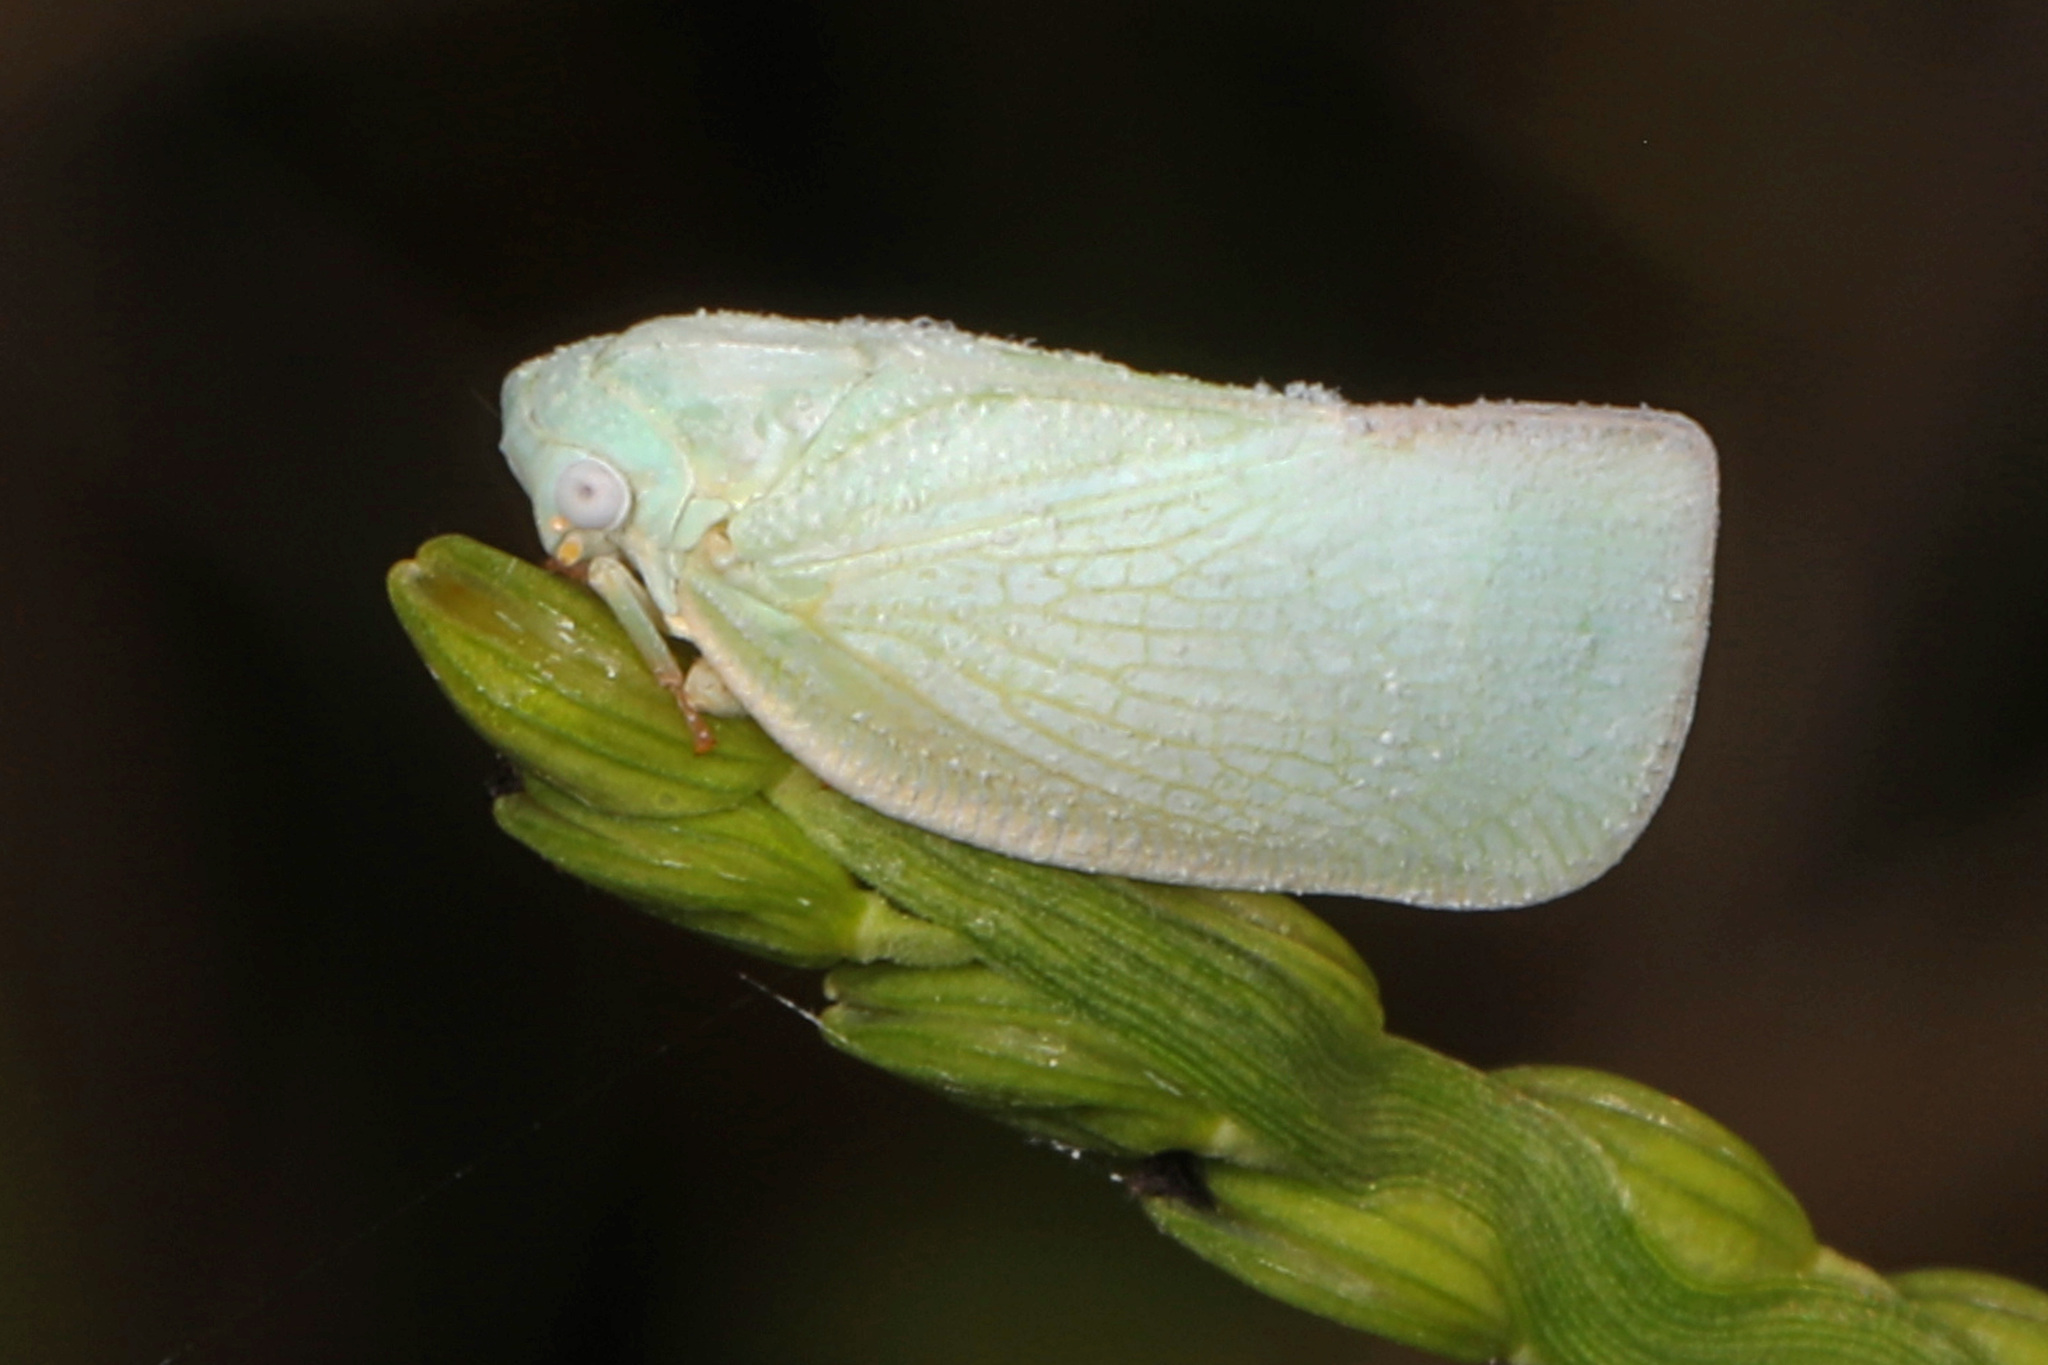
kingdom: Animalia
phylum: Arthropoda
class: Insecta
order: Hemiptera
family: Flatidae
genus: Flatormenis
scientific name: Flatormenis proxima
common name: Northern flatid planthopper
